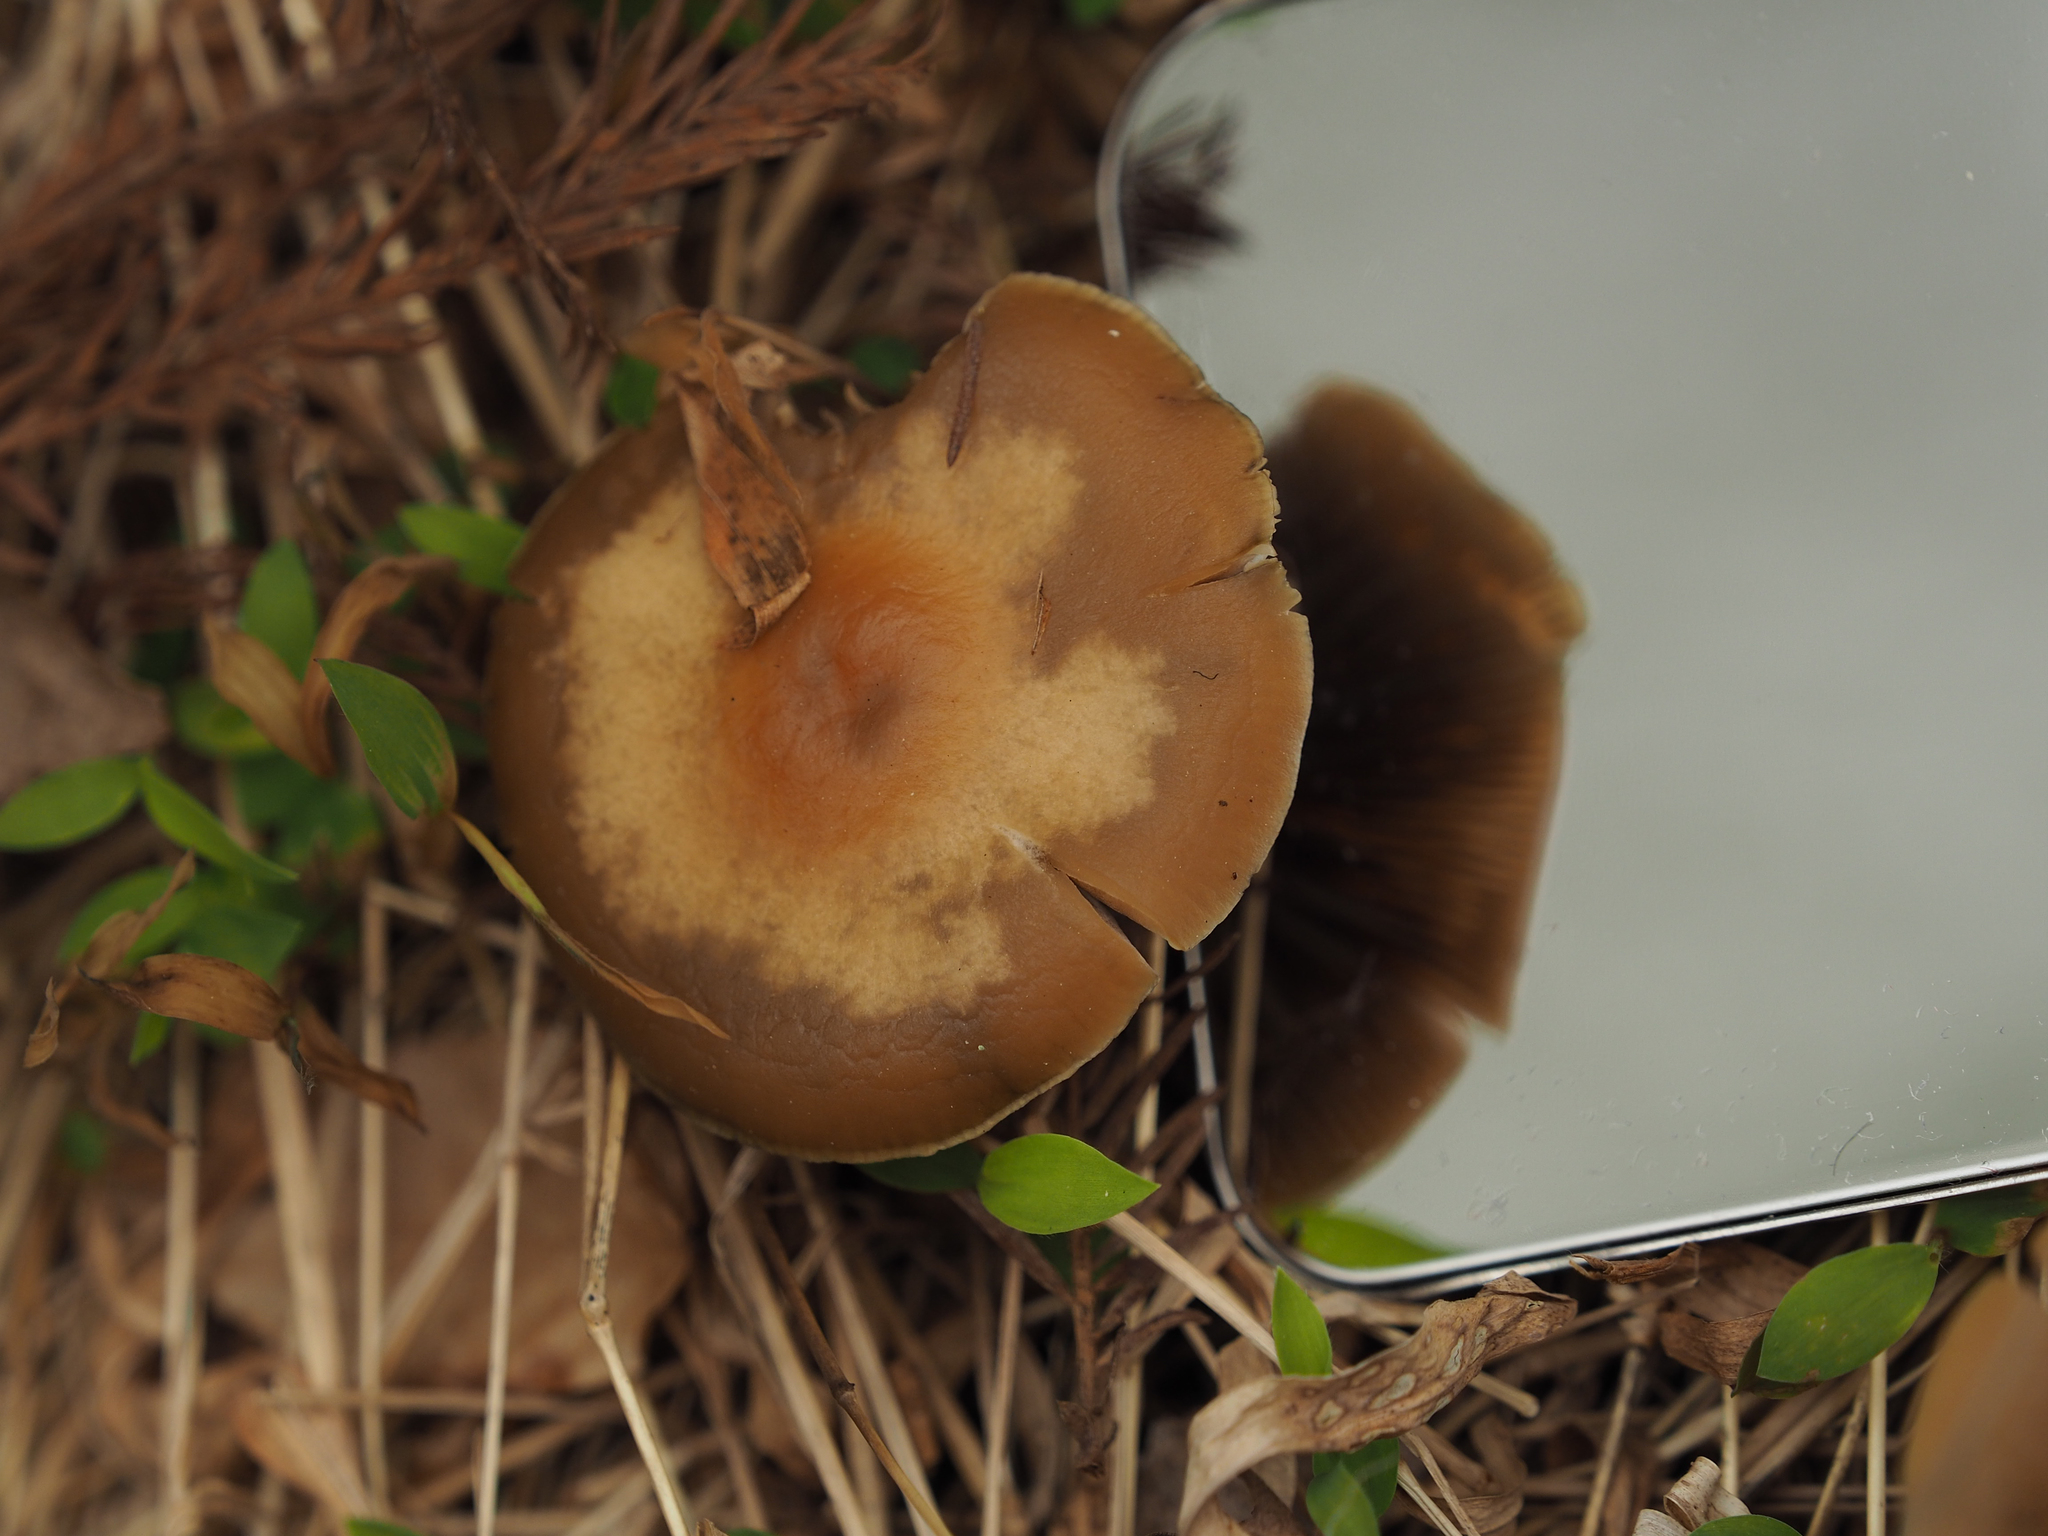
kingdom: Fungi
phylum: Basidiomycota
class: Agaricomycetes
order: Agaricales
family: Hymenogastraceae
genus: Psilocybe
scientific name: Psilocybe ovoideocystidiata
